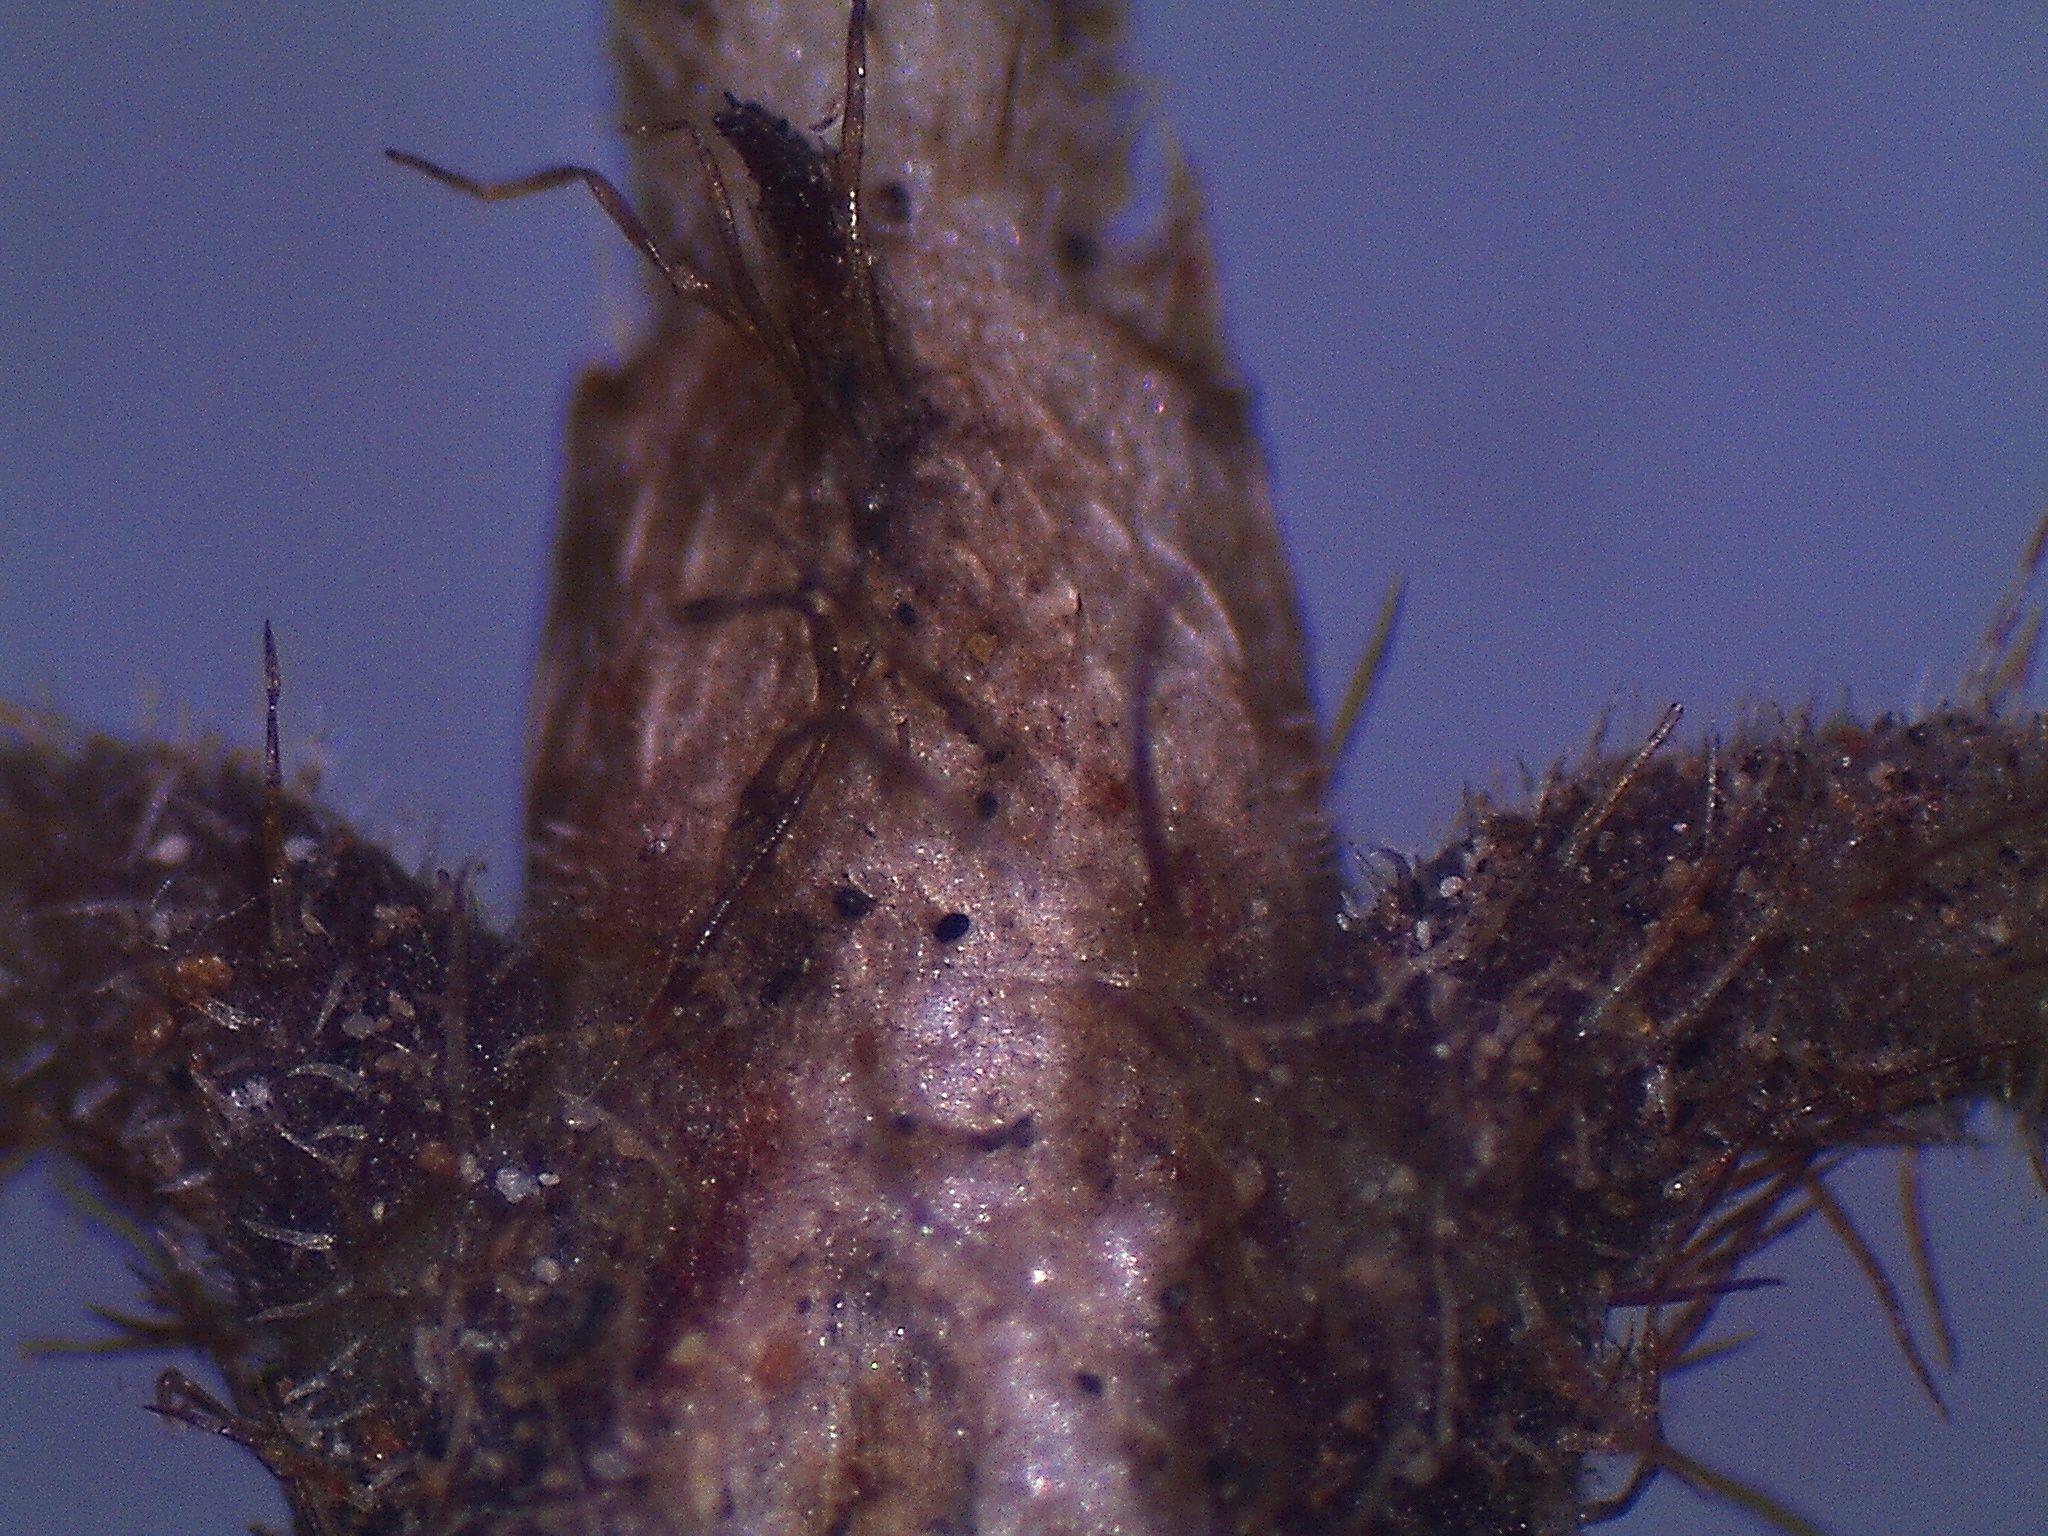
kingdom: Plantae
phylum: Tracheophyta
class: Magnoliopsida
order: Gentianales
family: Rubiaceae
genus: Coprosma
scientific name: Coprosma rotundifolia
